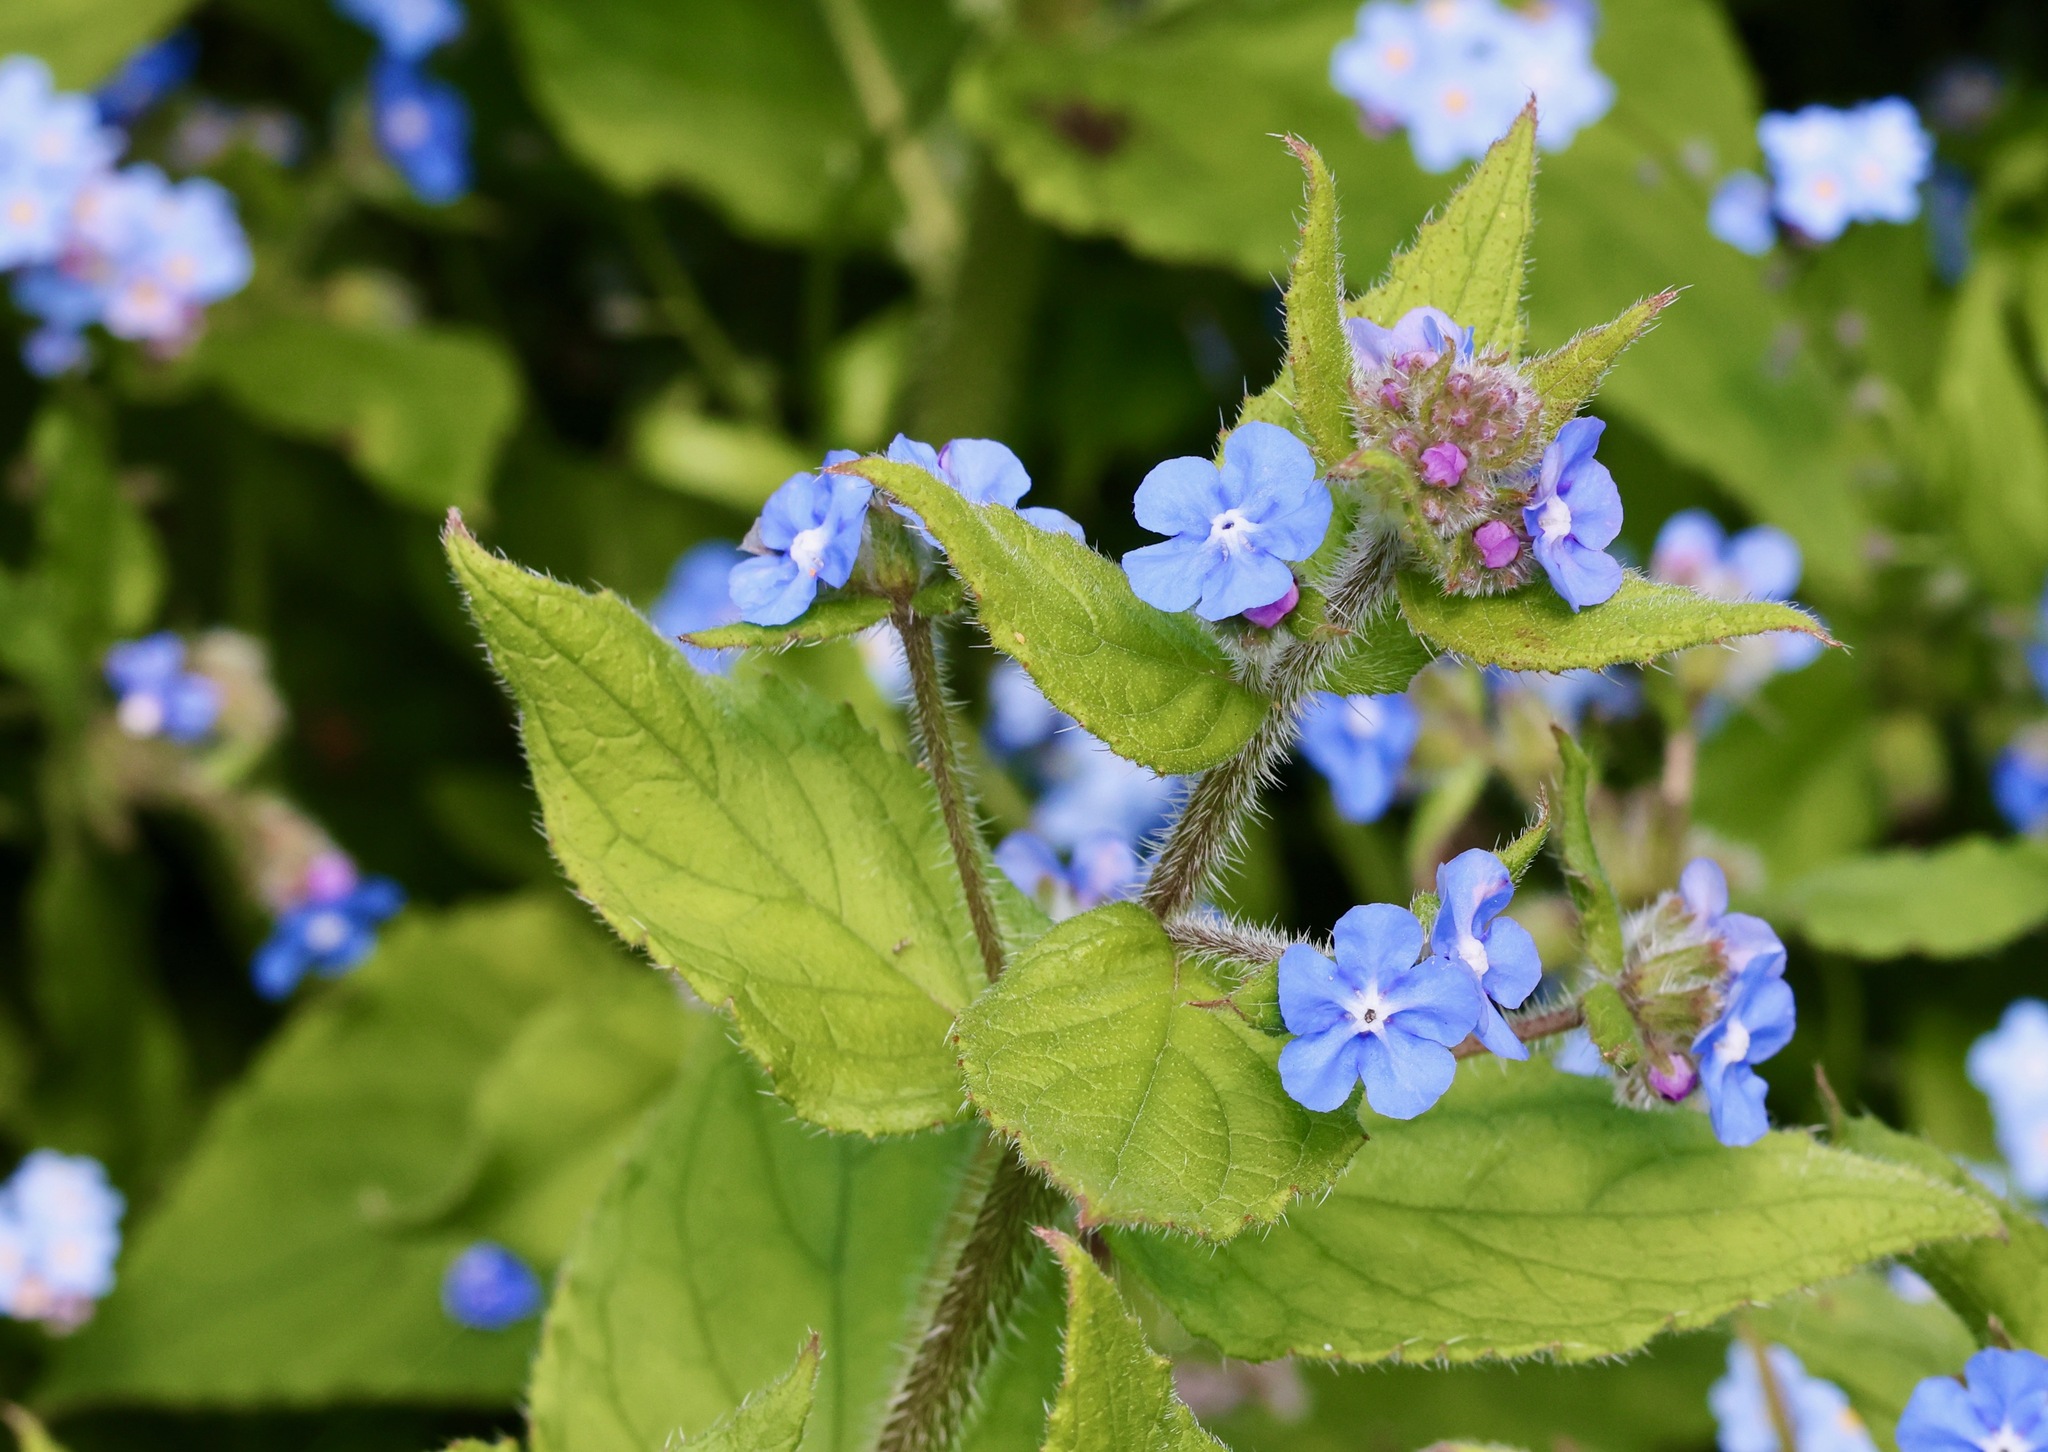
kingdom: Plantae
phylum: Tracheophyta
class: Magnoliopsida
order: Boraginales
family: Boraginaceae
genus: Pentaglottis
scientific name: Pentaglottis sempervirens
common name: Green alkanet
